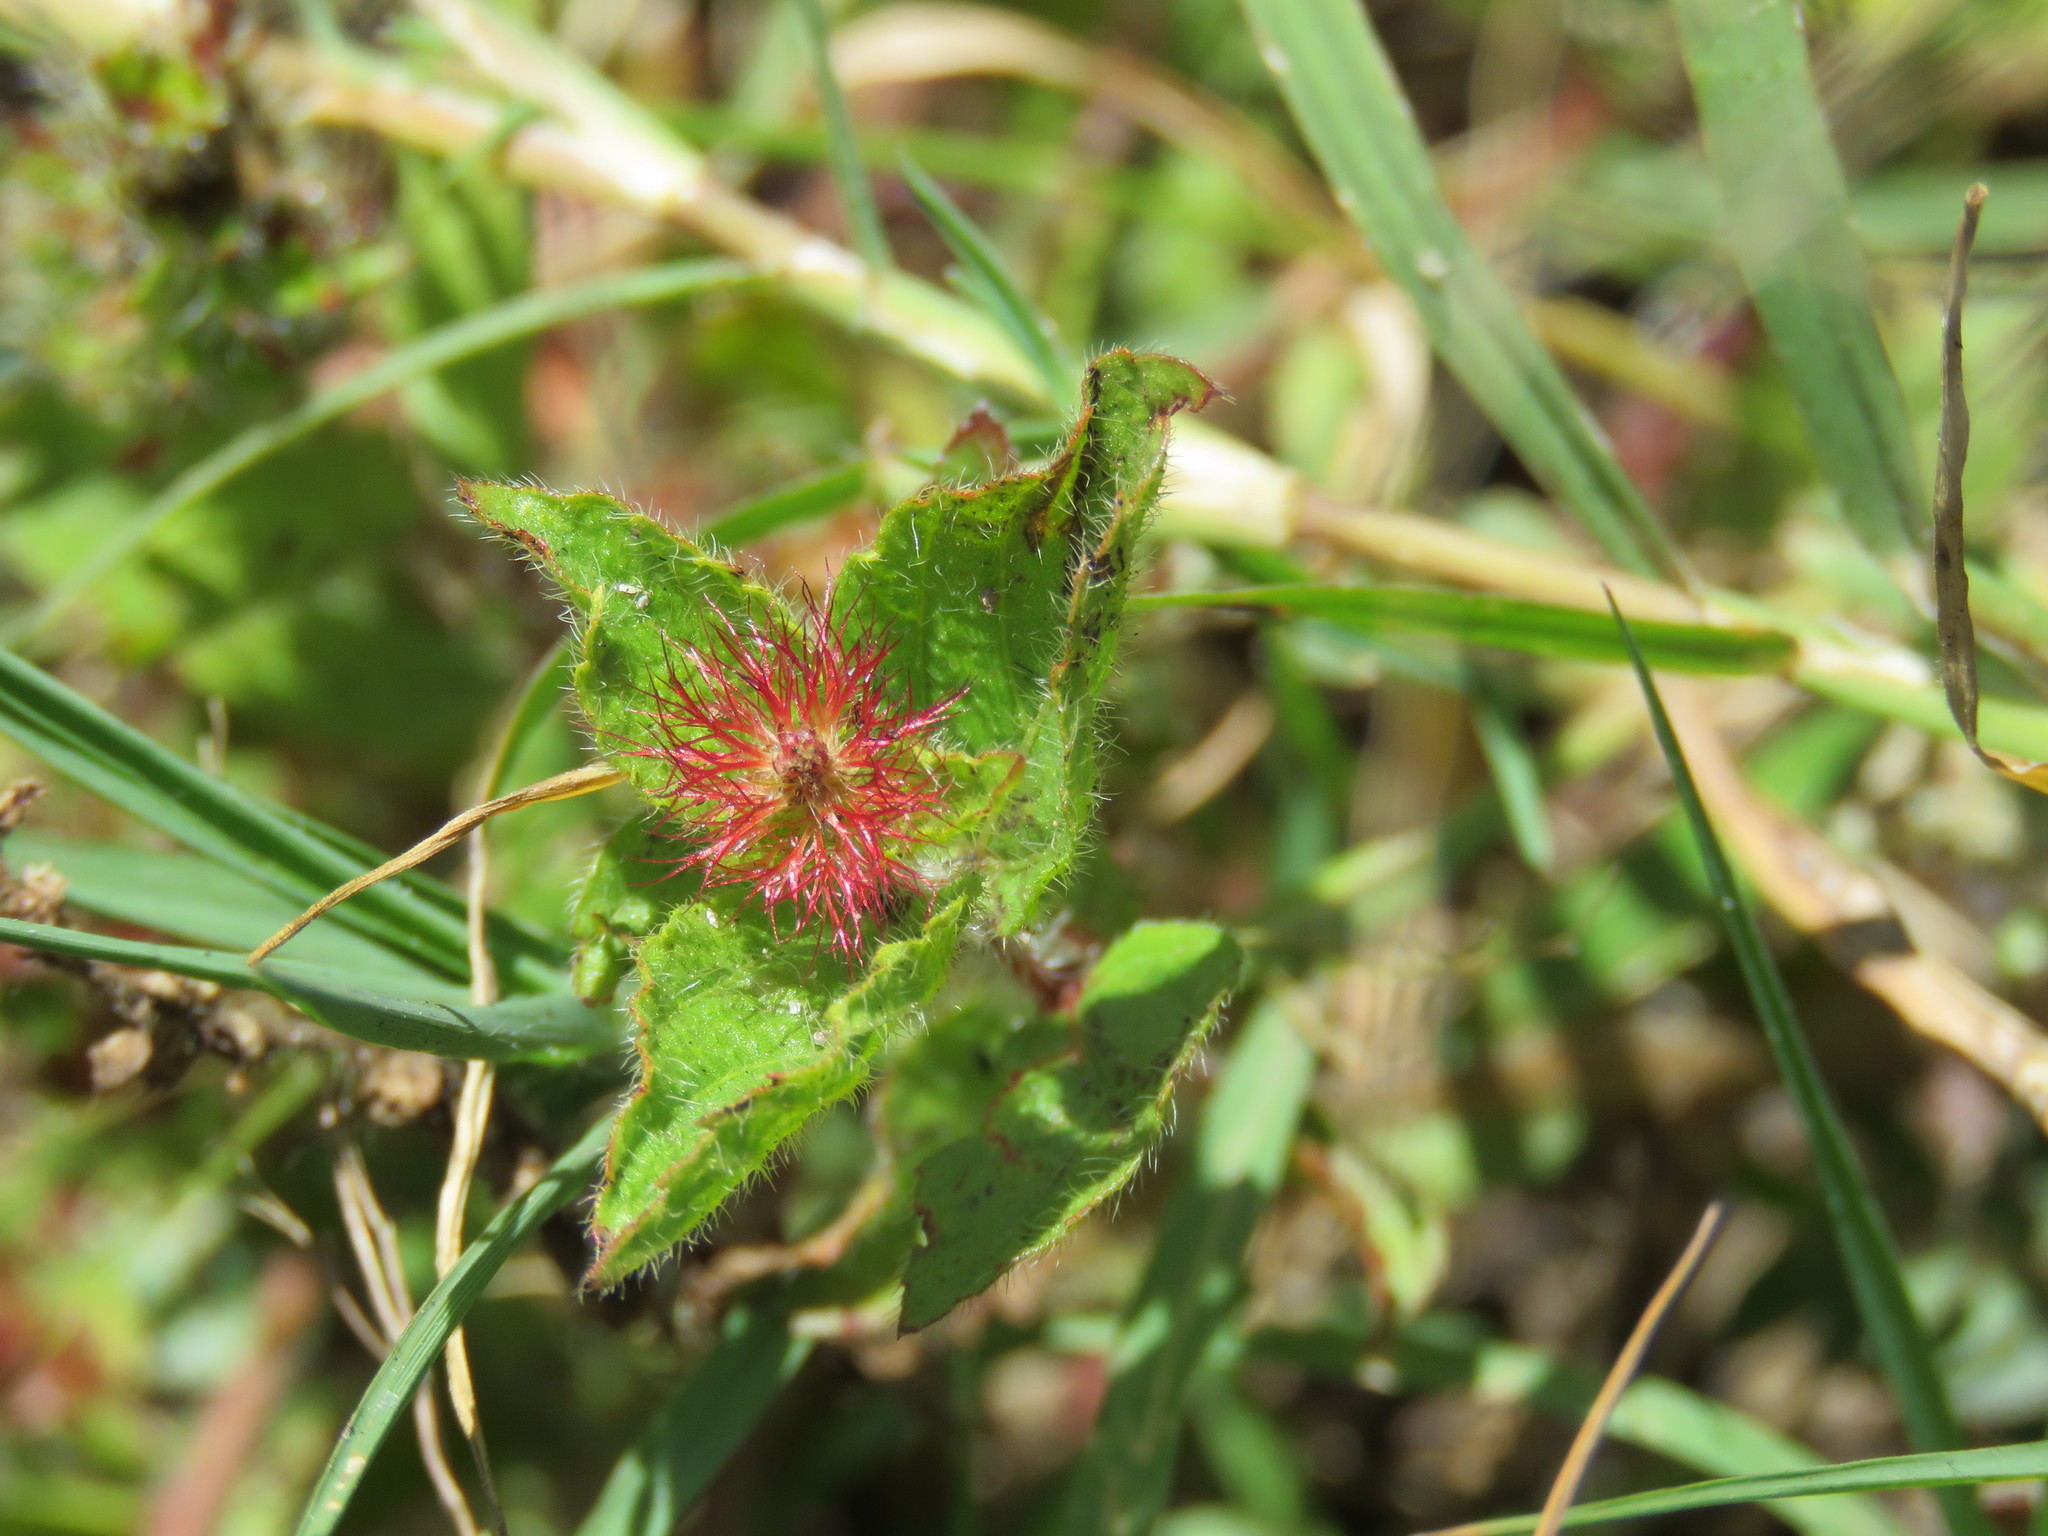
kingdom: Plantae
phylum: Tracheophyta
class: Magnoliopsida
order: Malpighiales
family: Euphorbiaceae
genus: Acalypha
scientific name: Acalypha phleoides
